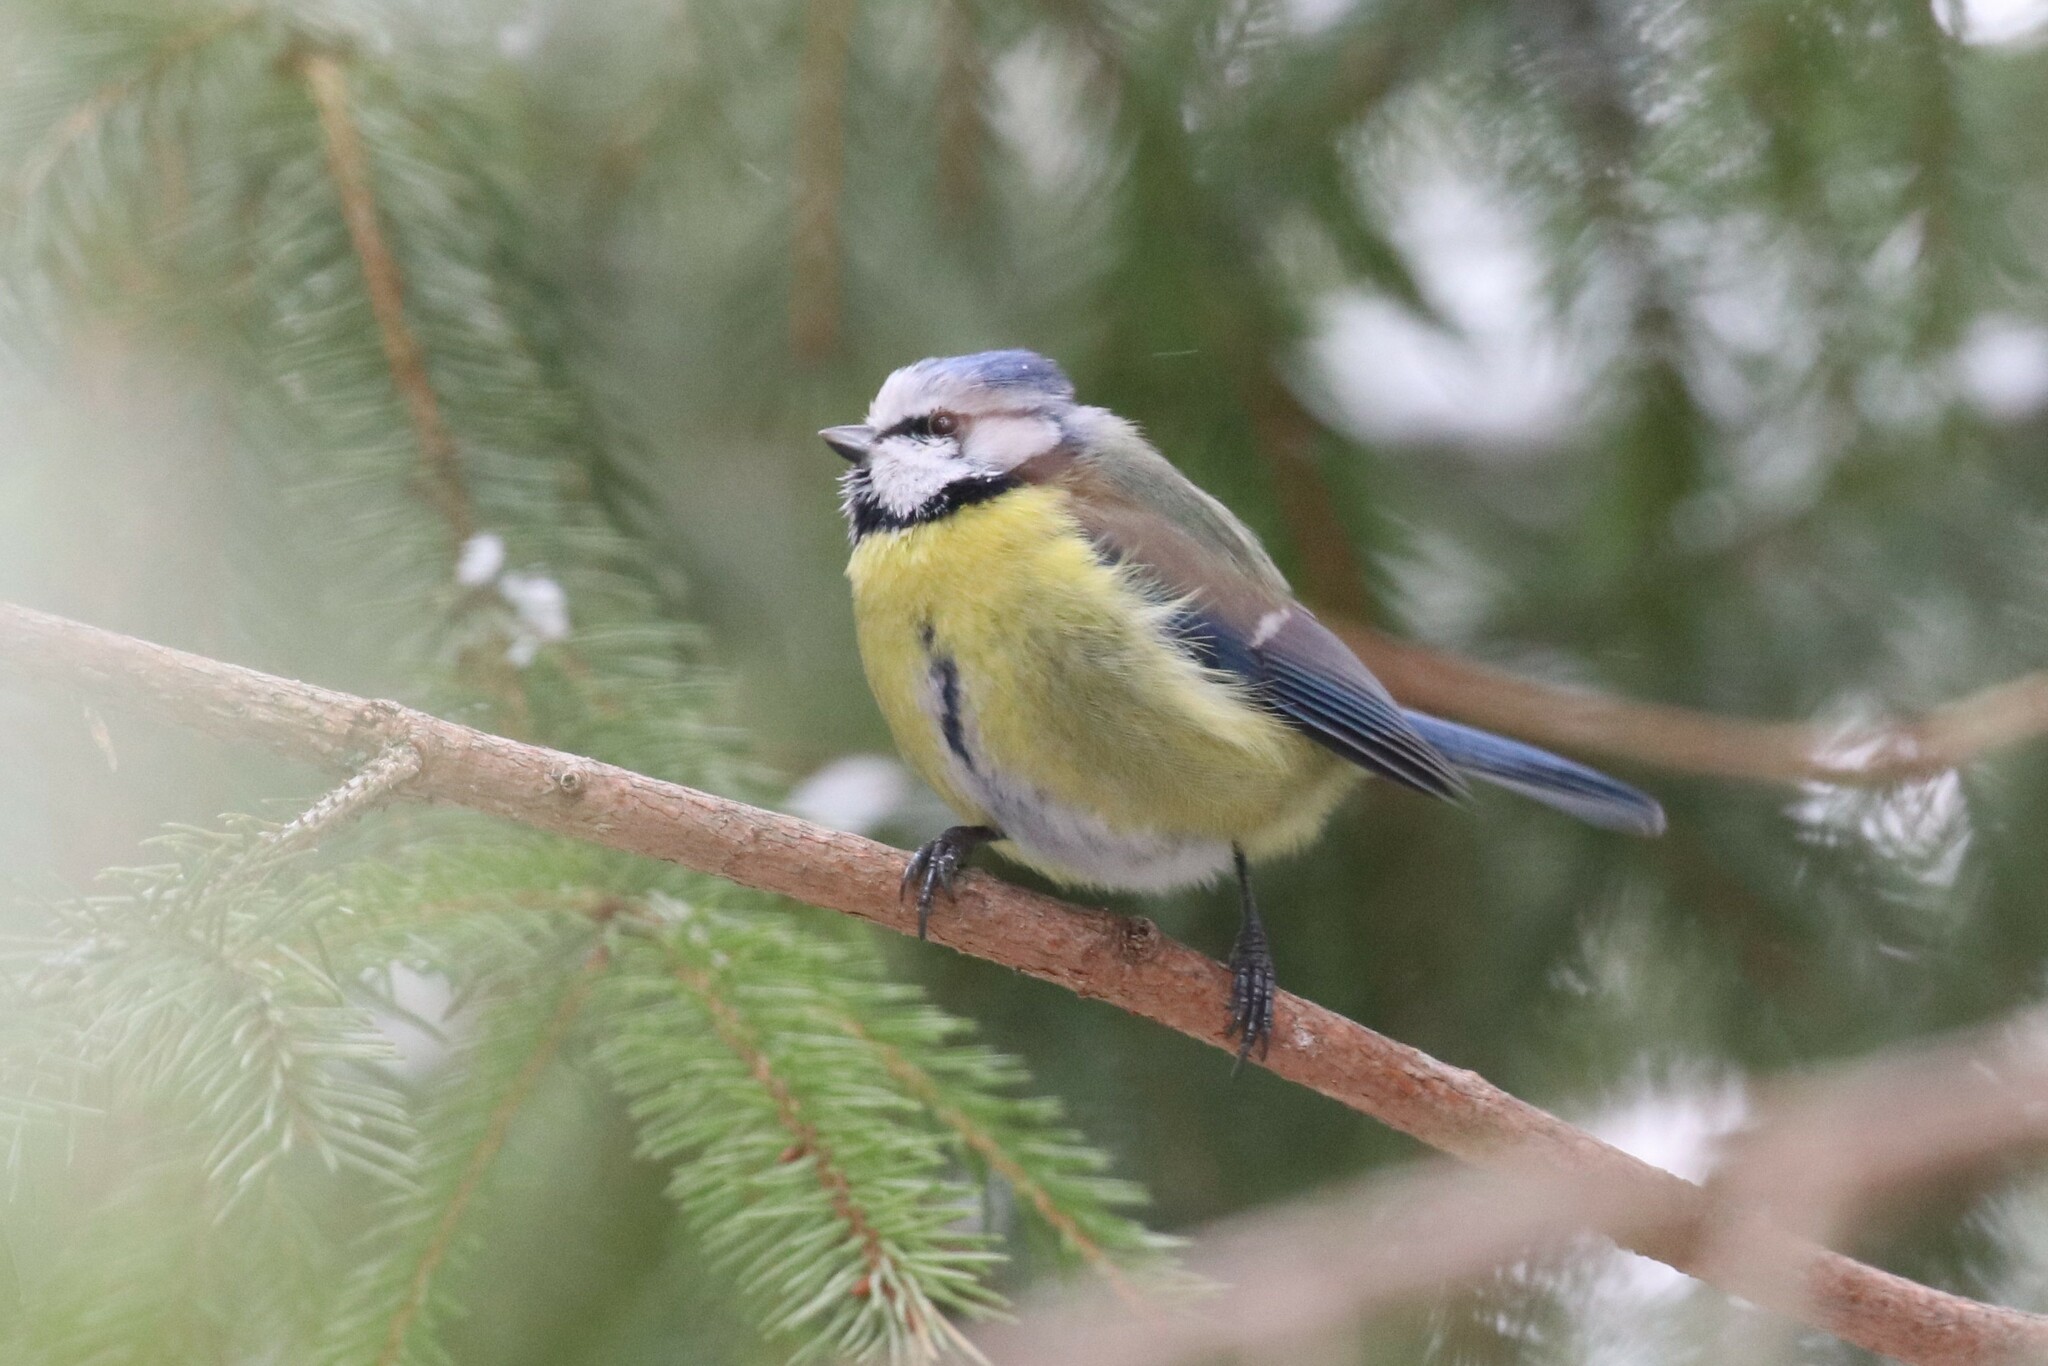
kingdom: Animalia
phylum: Chordata
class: Aves
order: Passeriformes
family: Paridae
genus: Cyanistes
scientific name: Cyanistes caeruleus
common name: Eurasian blue tit
